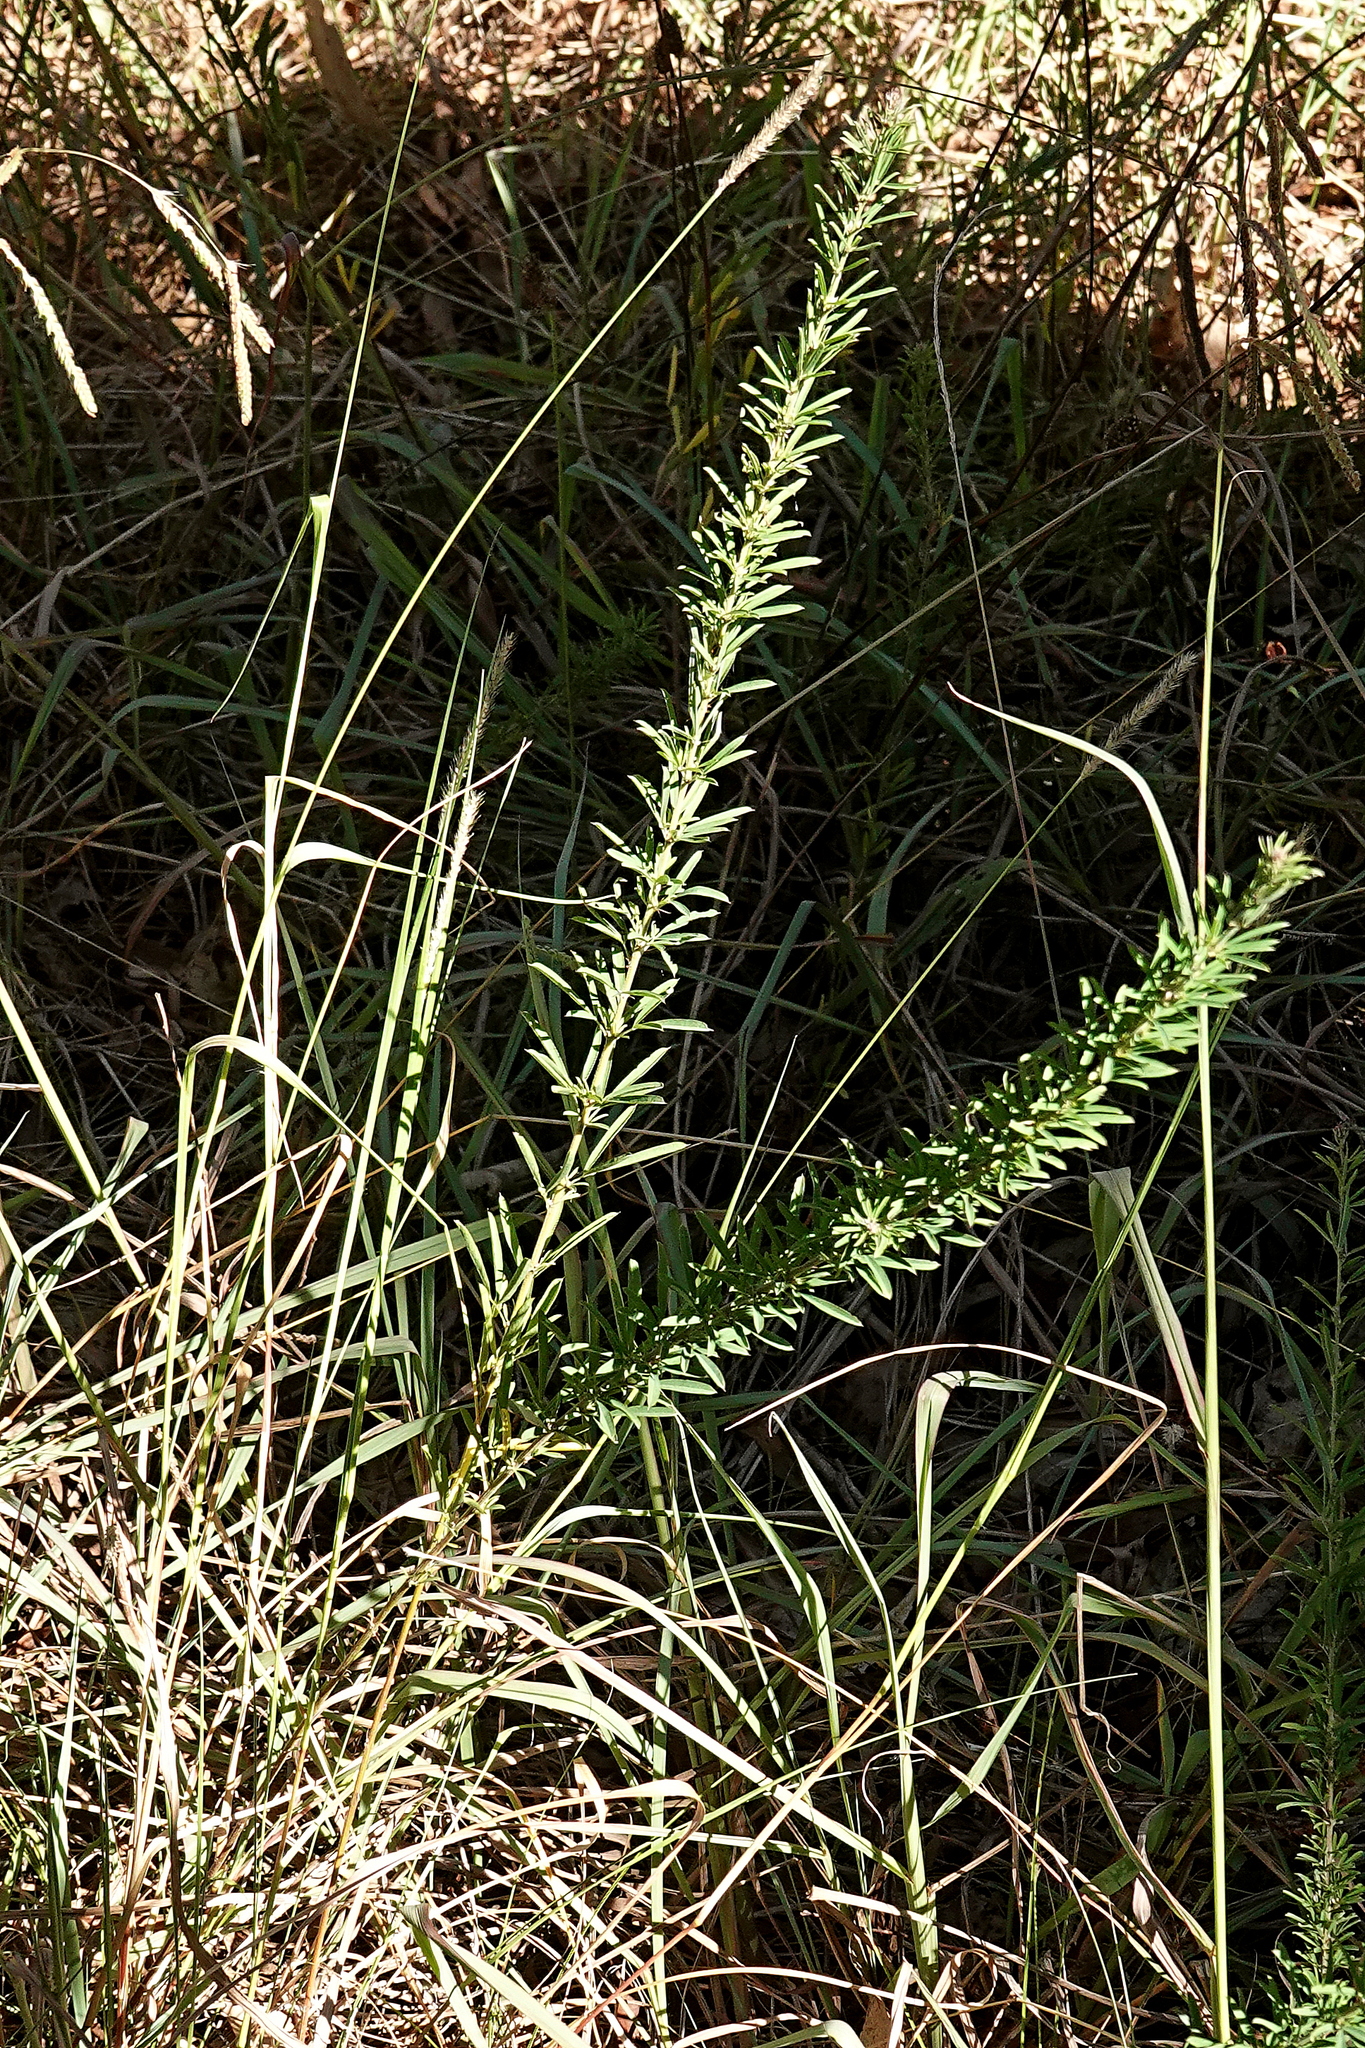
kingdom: Plantae
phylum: Tracheophyta
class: Magnoliopsida
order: Fabales
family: Fabaceae
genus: Lespedeza
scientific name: Lespedeza juncea
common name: Siberian lespedeza
